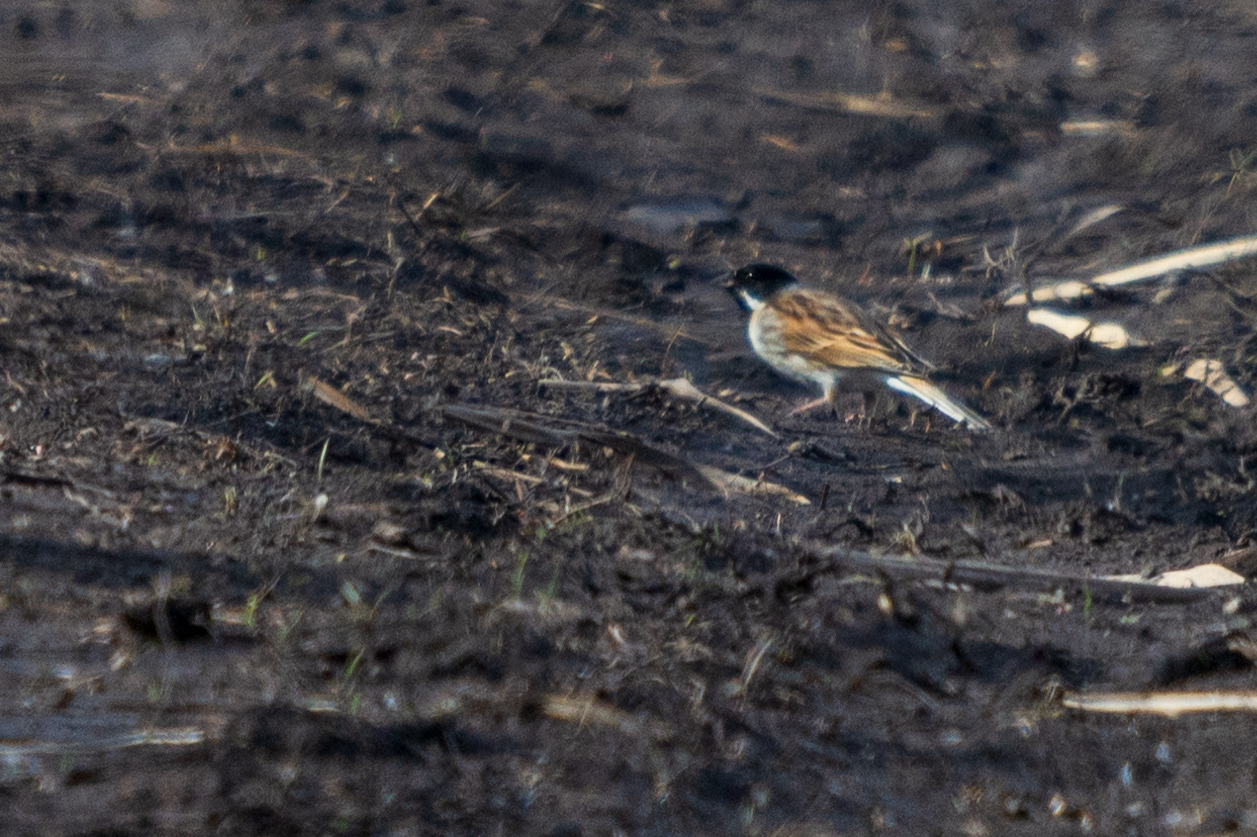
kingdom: Animalia
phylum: Chordata
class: Aves
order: Passeriformes
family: Emberizidae
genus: Emberiza
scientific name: Emberiza schoeniclus
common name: Reed bunting
